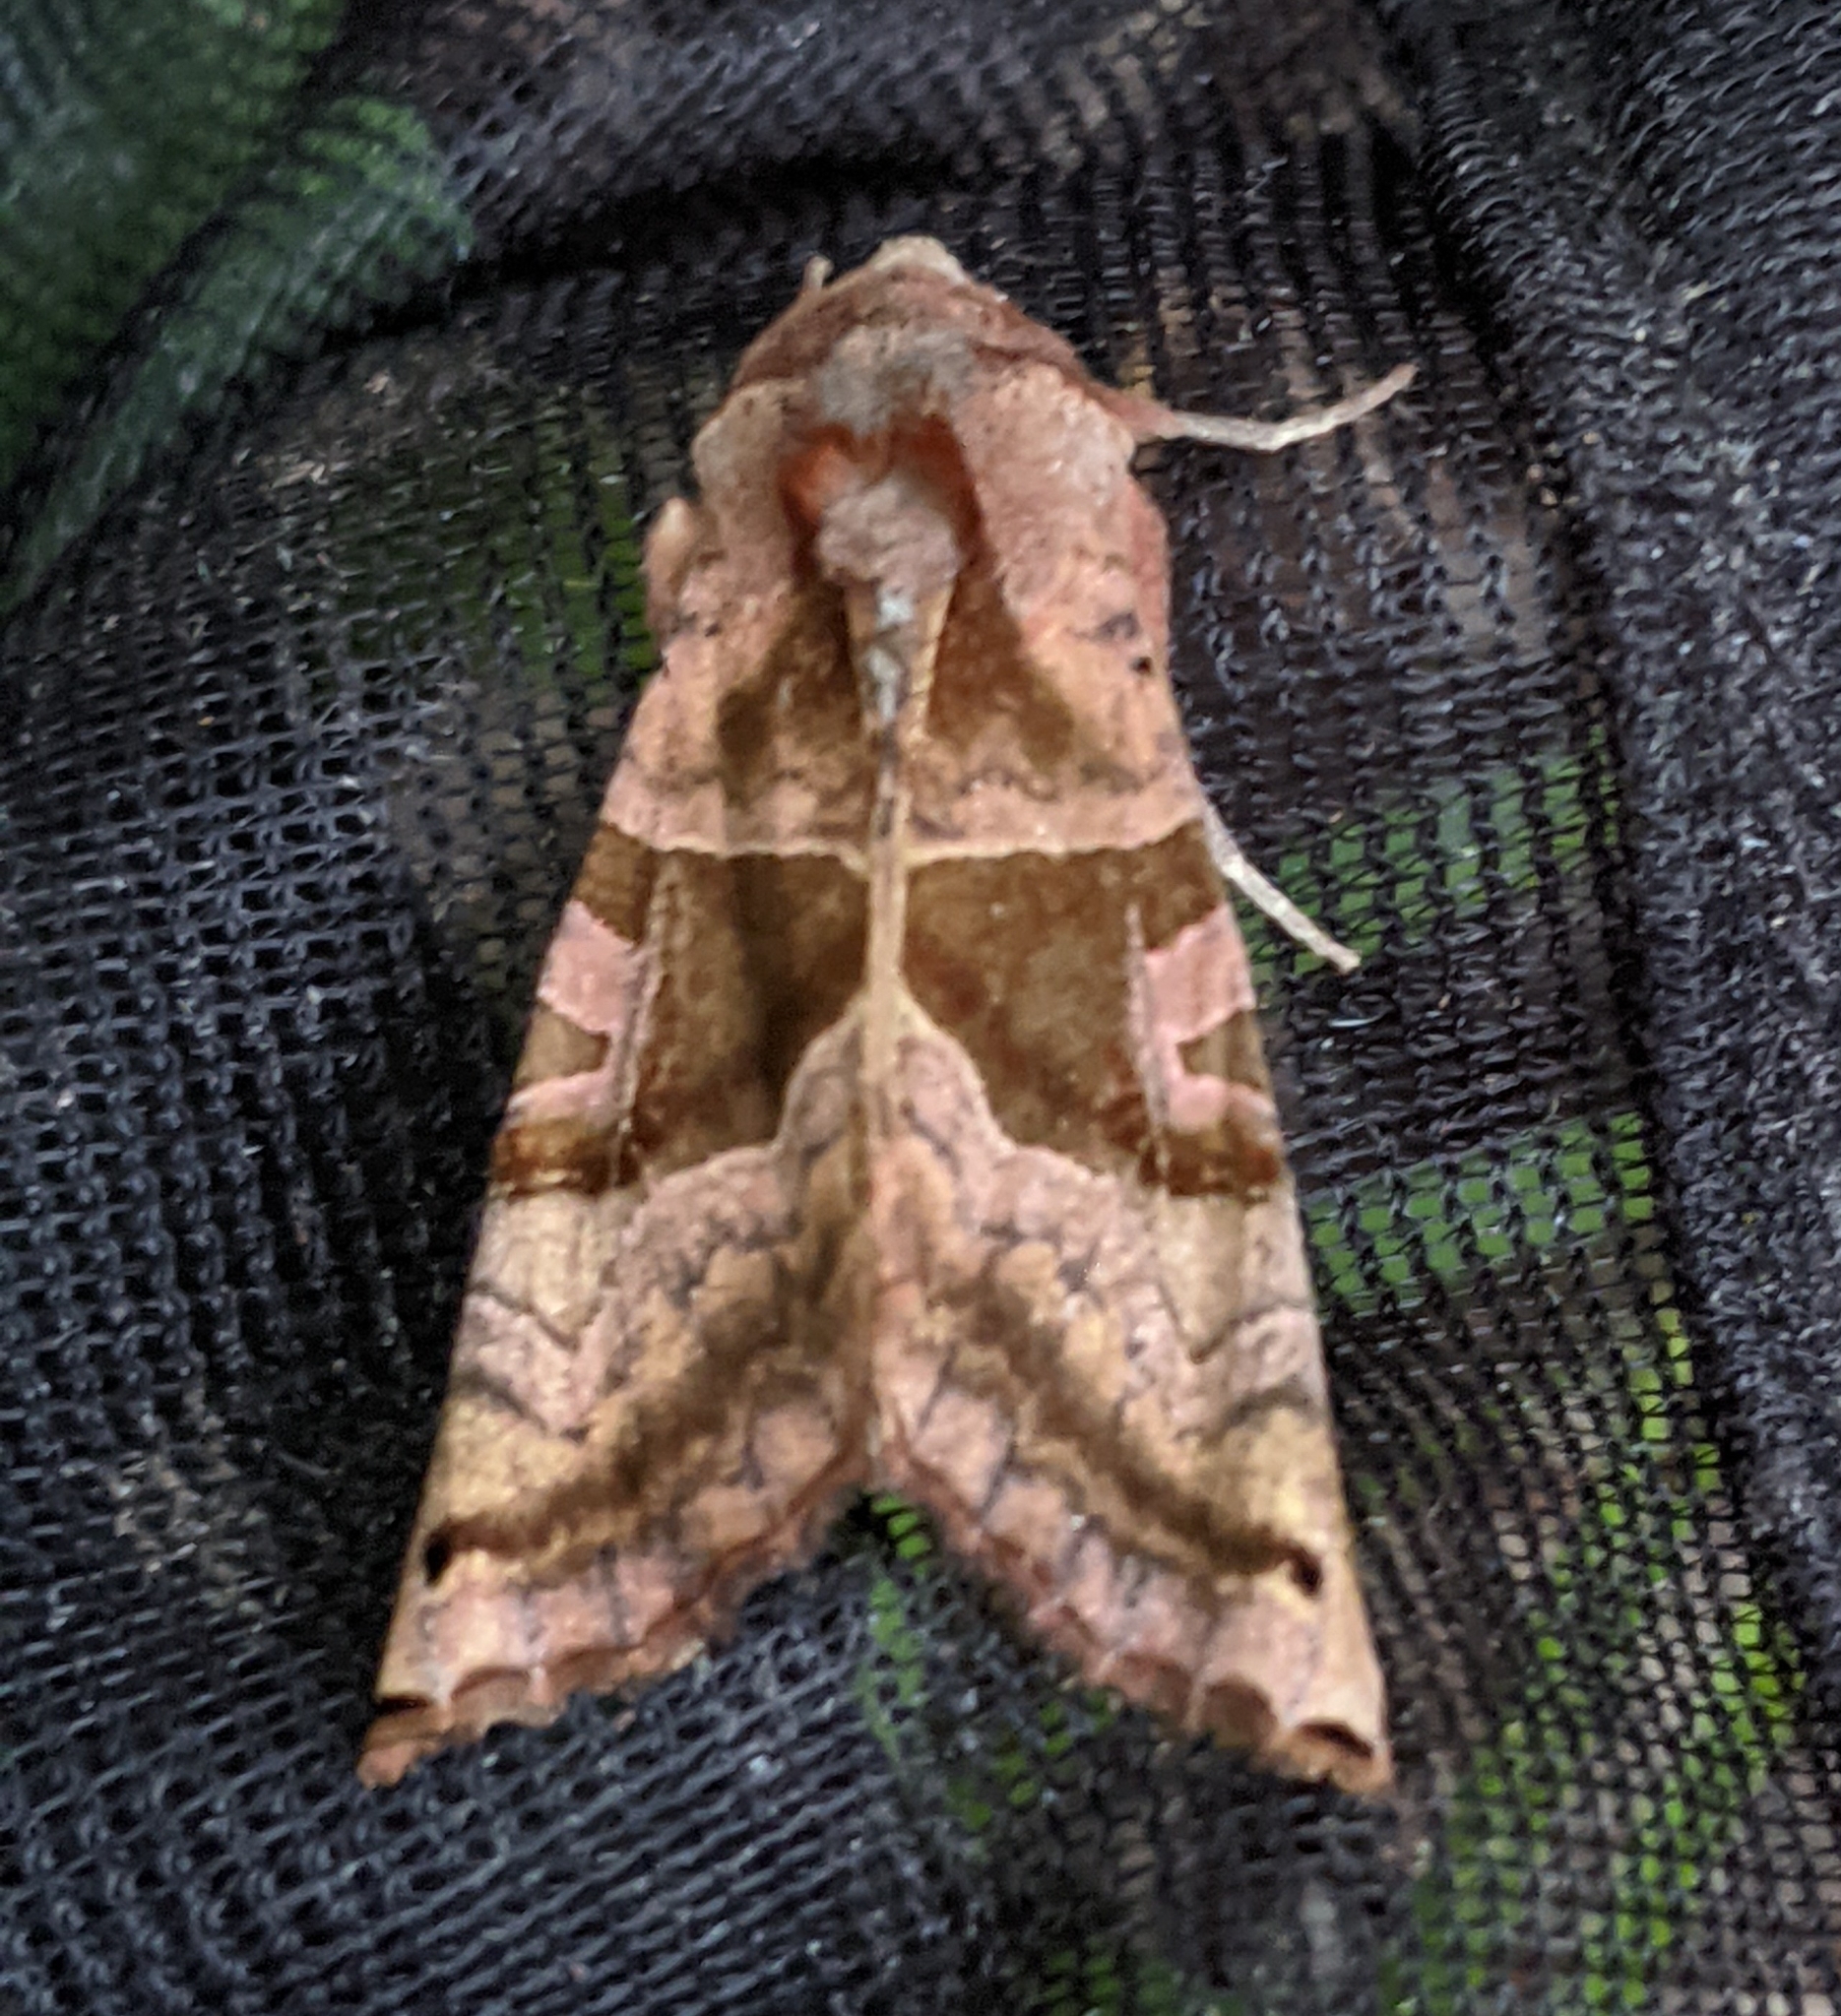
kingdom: Animalia
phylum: Arthropoda
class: Insecta
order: Lepidoptera
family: Noctuidae
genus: Phlogophora
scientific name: Phlogophora periculosa
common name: Brown angle shades
